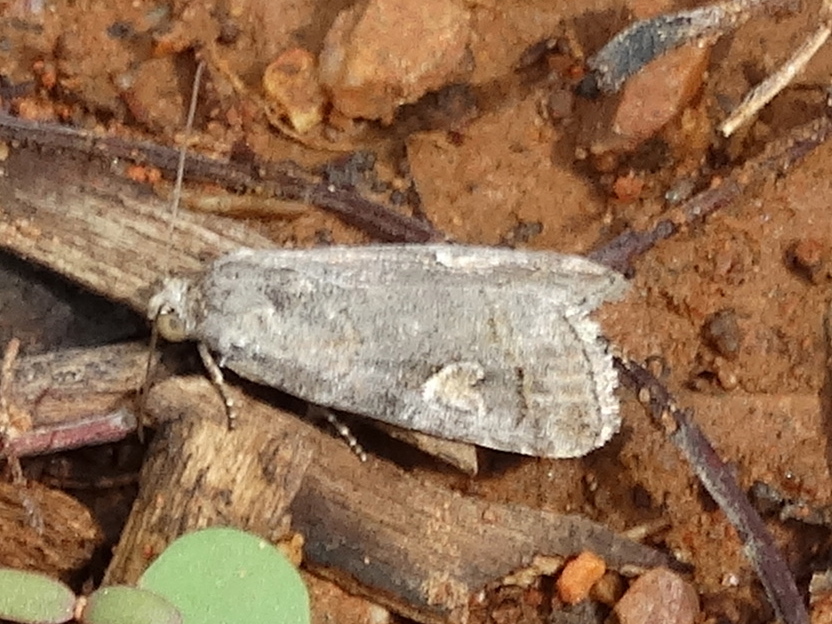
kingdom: Animalia
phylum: Arthropoda
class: Insecta
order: Lepidoptera
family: Noctuidae
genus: Metaponpneumata
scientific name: Metaponpneumata rogenhoferi
